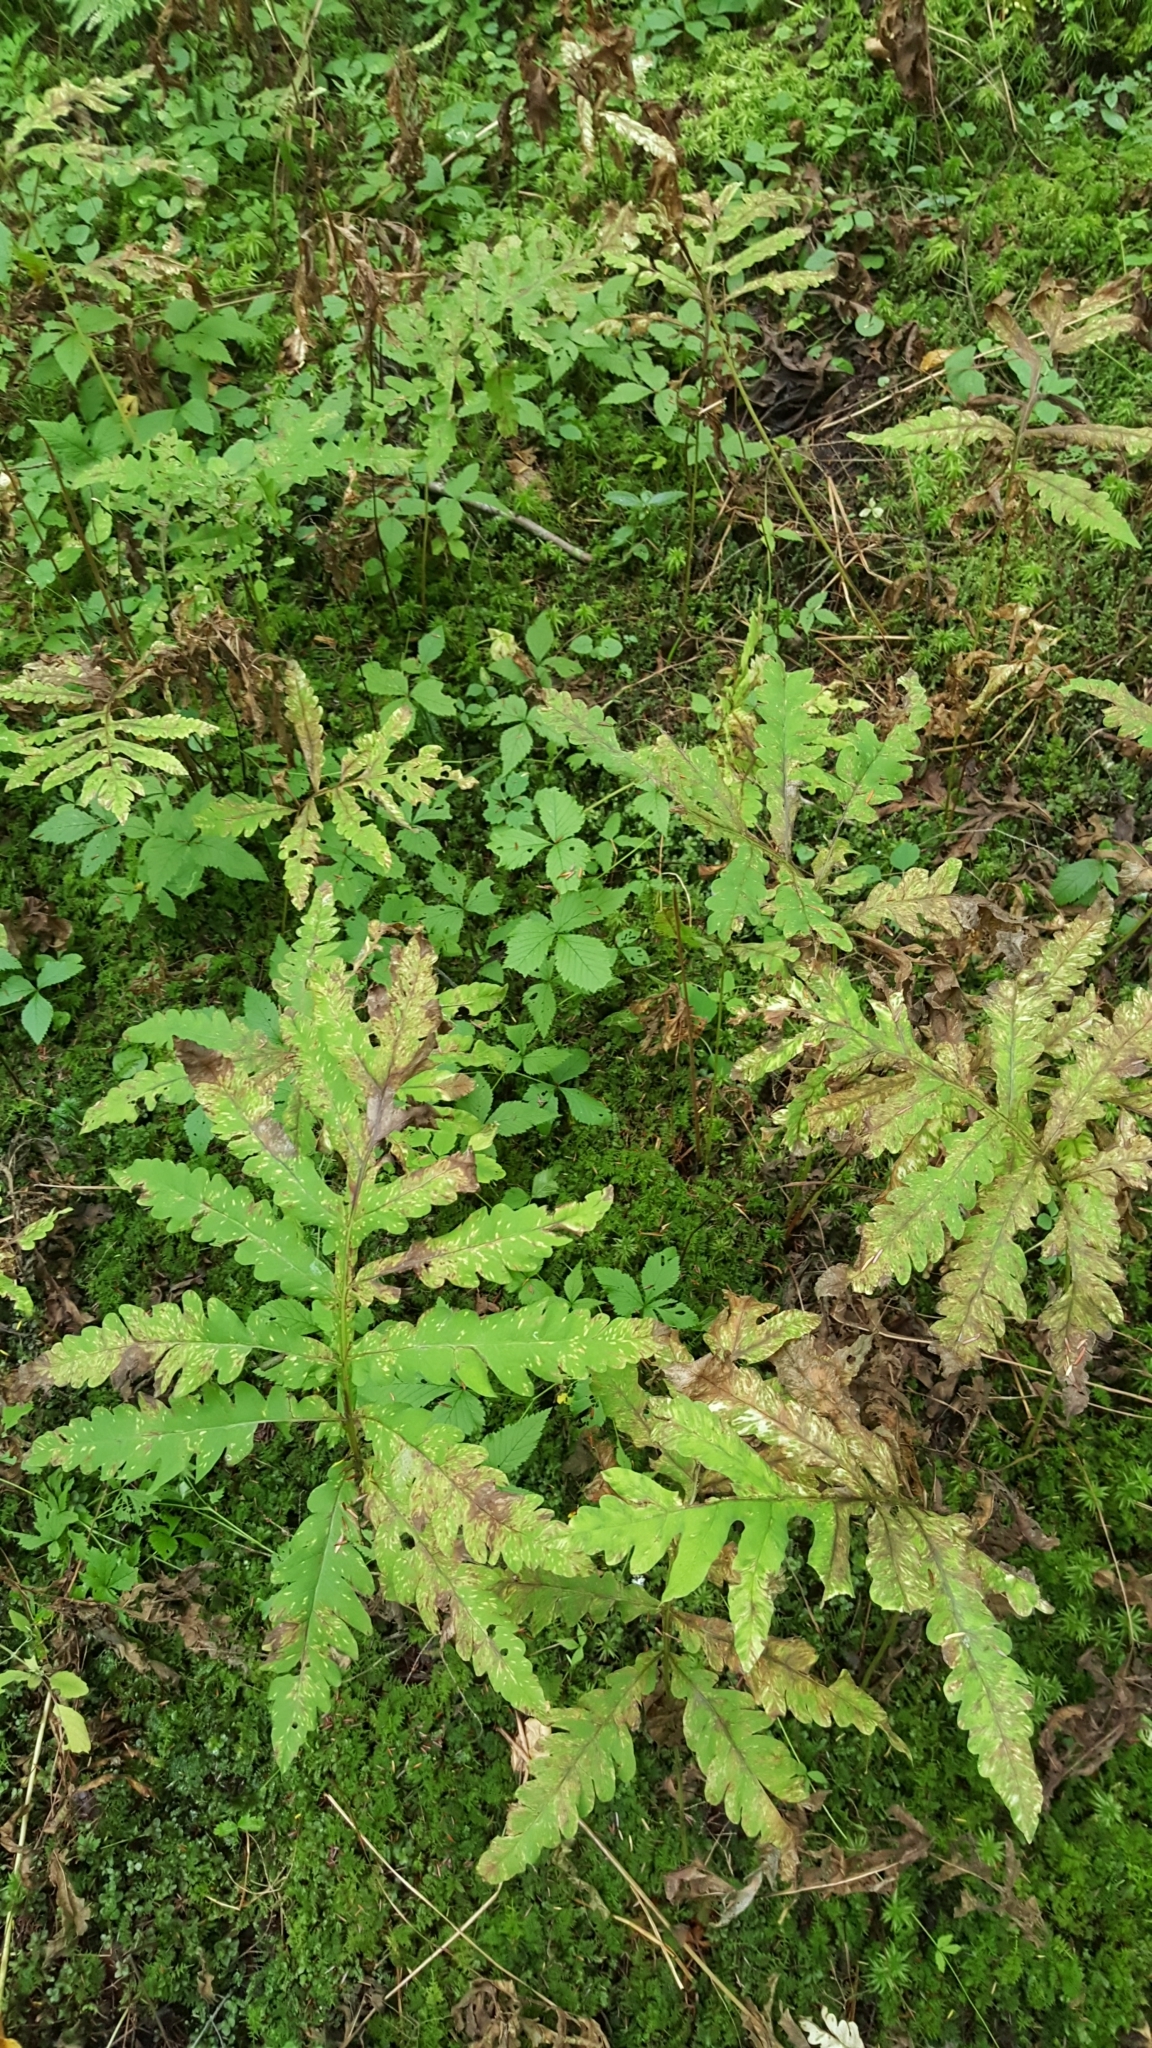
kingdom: Plantae
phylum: Tracheophyta
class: Polypodiopsida
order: Polypodiales
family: Onocleaceae
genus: Onoclea
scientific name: Onoclea sensibilis
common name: Sensitive fern
